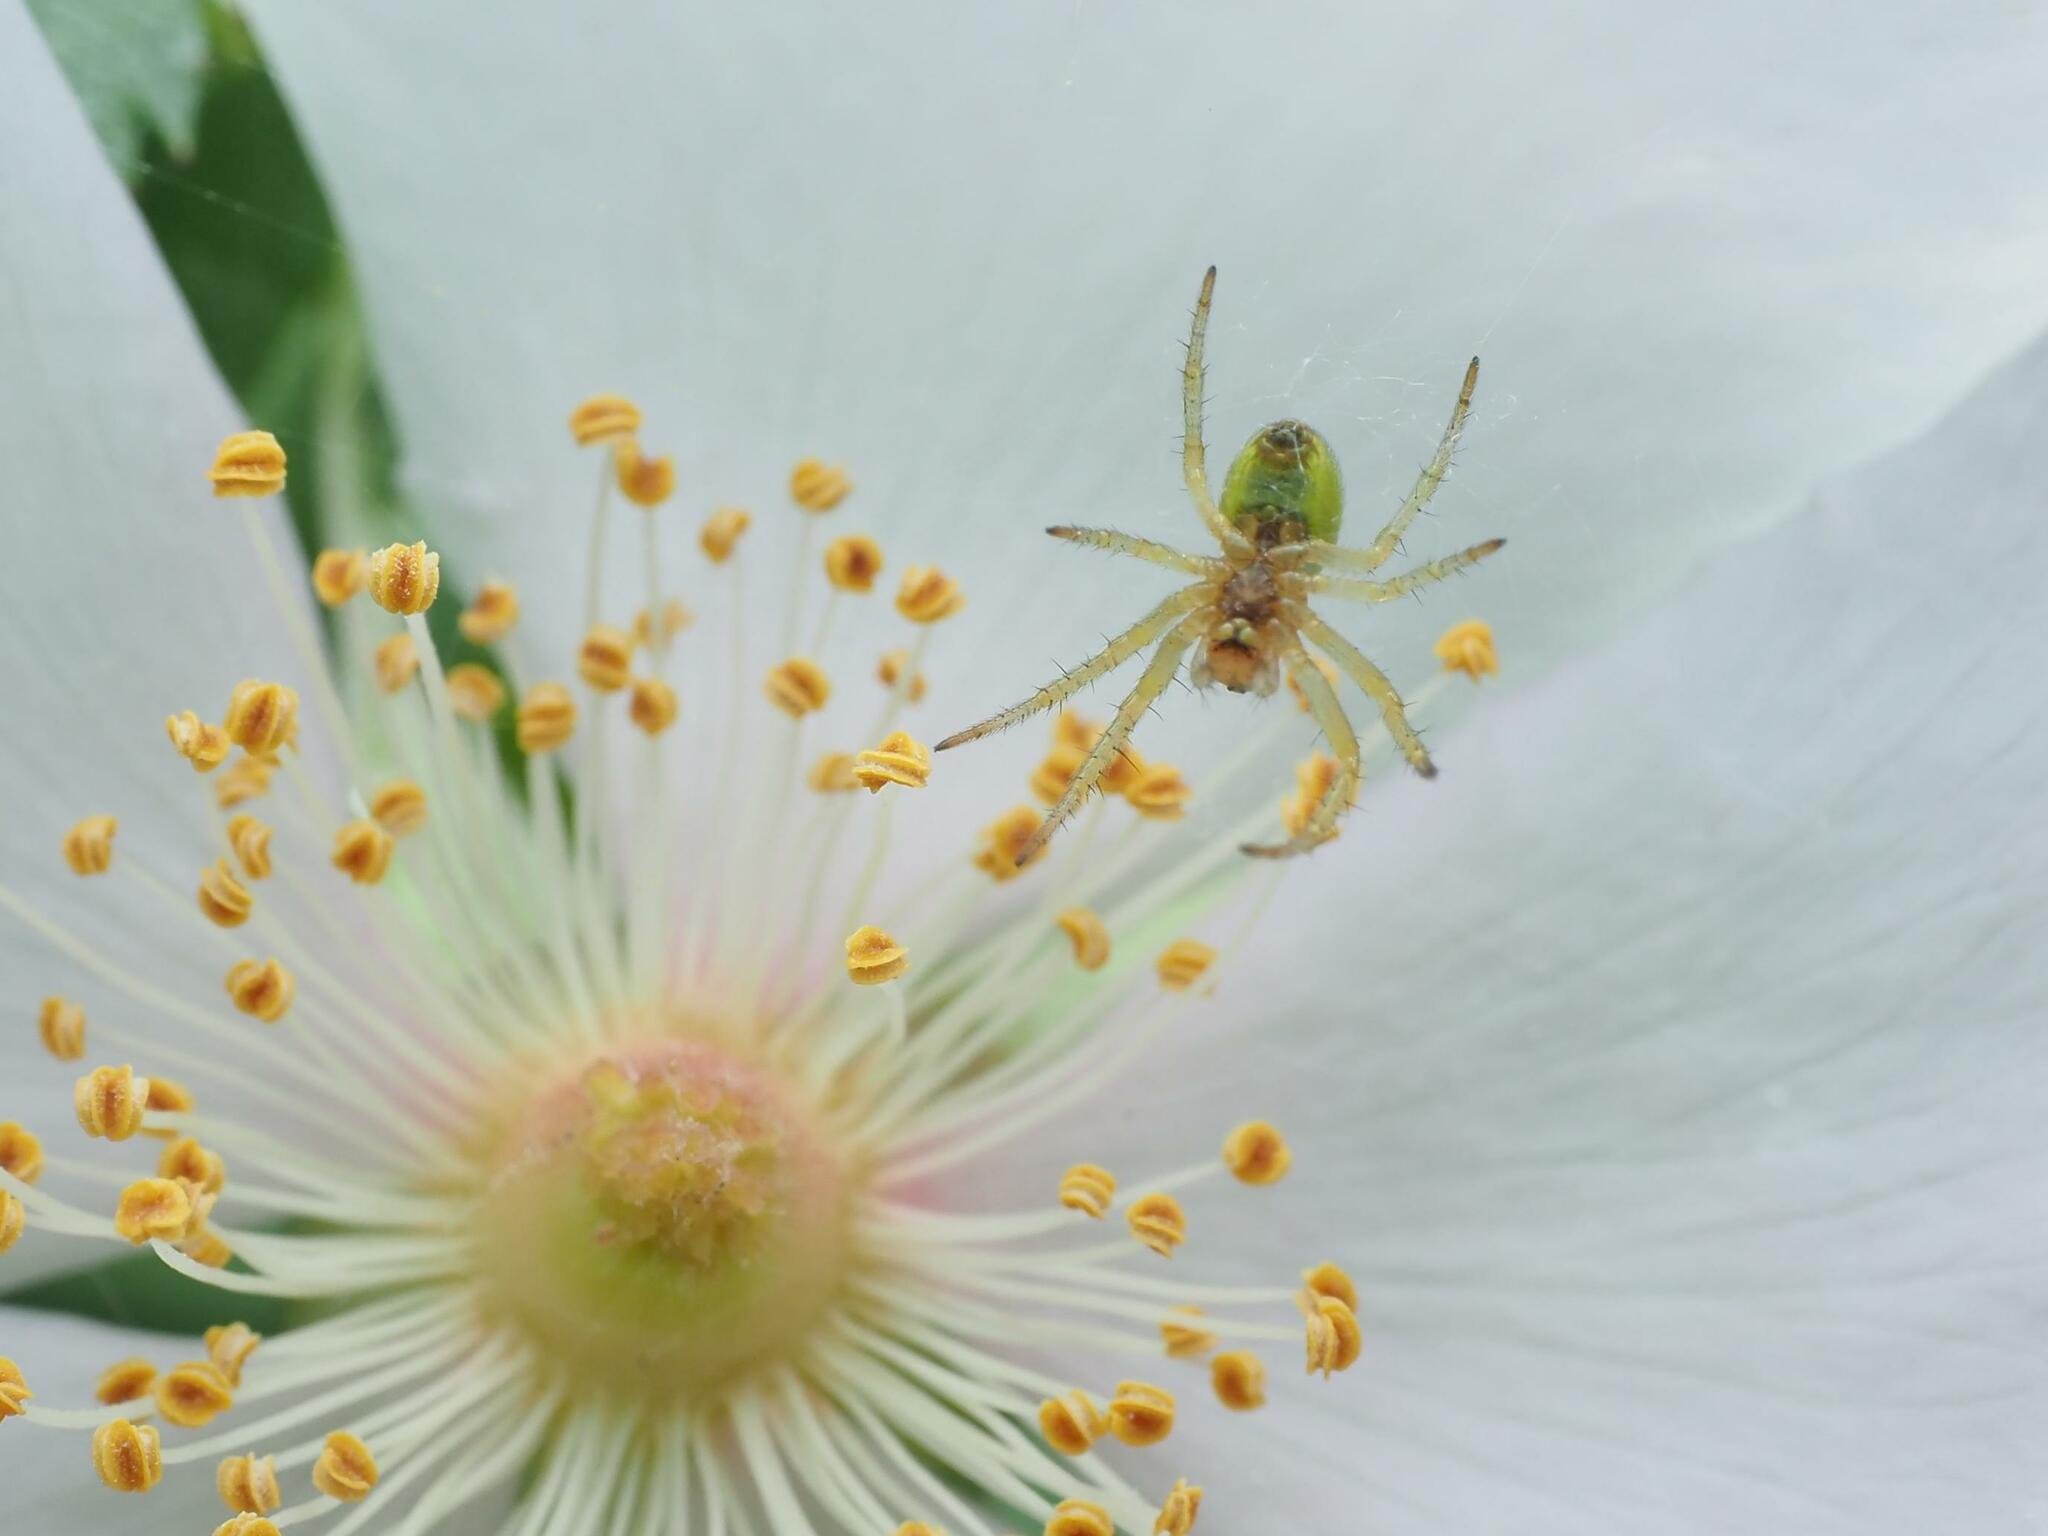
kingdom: Animalia
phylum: Arthropoda
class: Arachnida
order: Araneae
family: Araneidae
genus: Araniella
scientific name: Araniella
